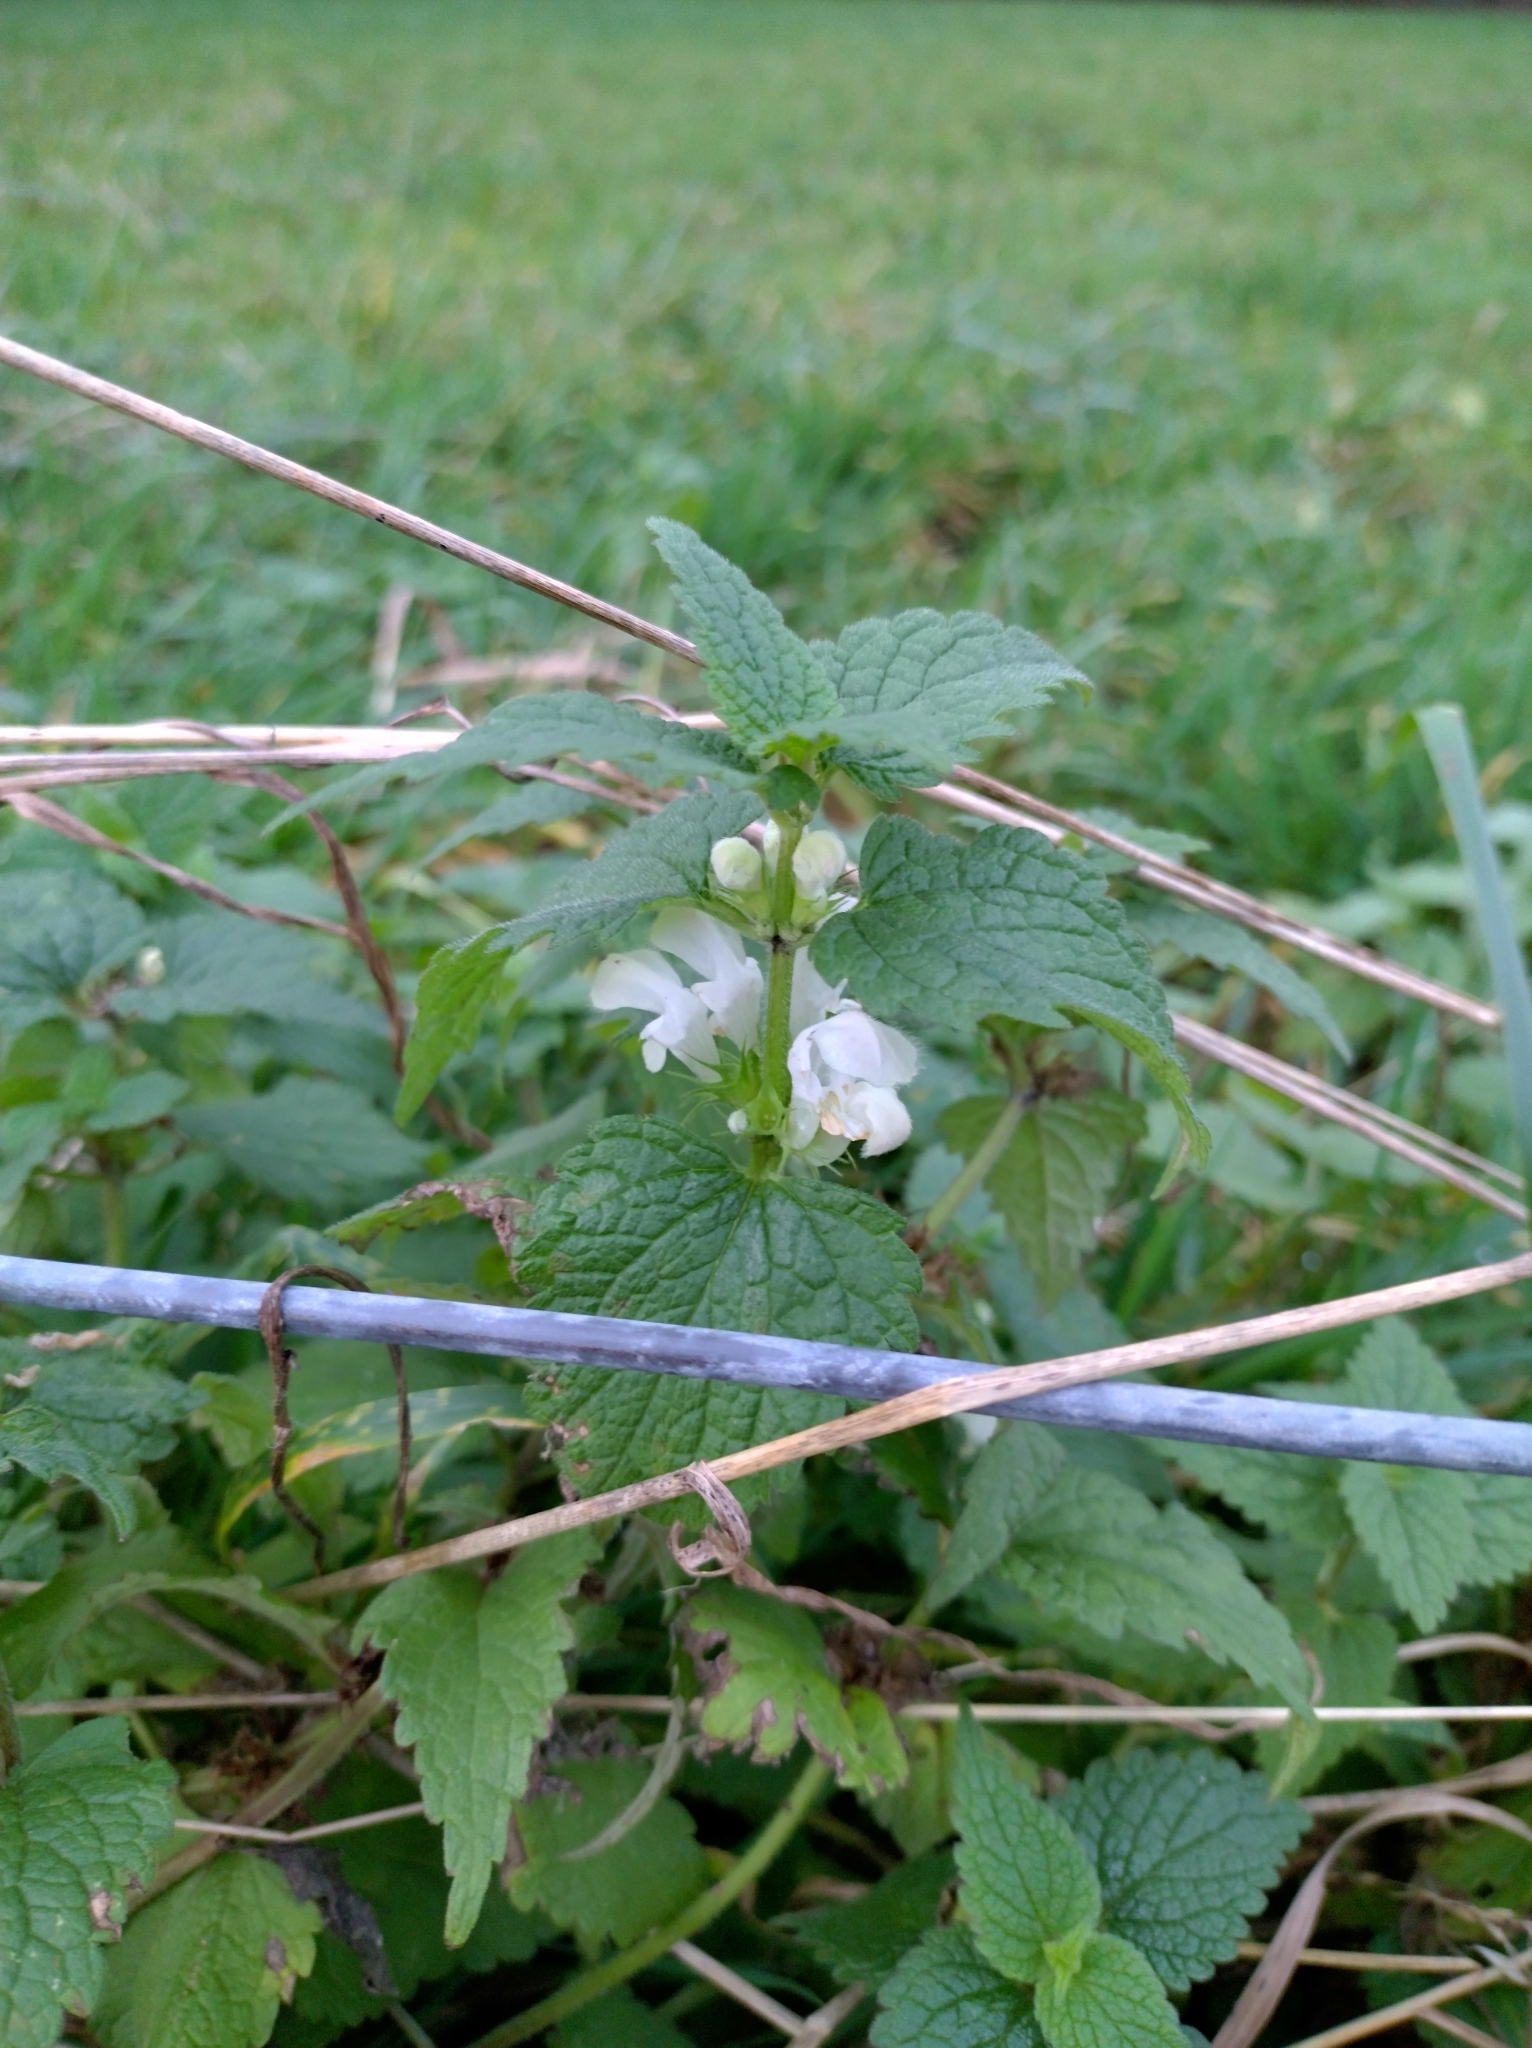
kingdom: Plantae
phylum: Tracheophyta
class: Magnoliopsida
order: Lamiales
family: Lamiaceae
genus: Lamium
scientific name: Lamium album
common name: White dead-nettle
